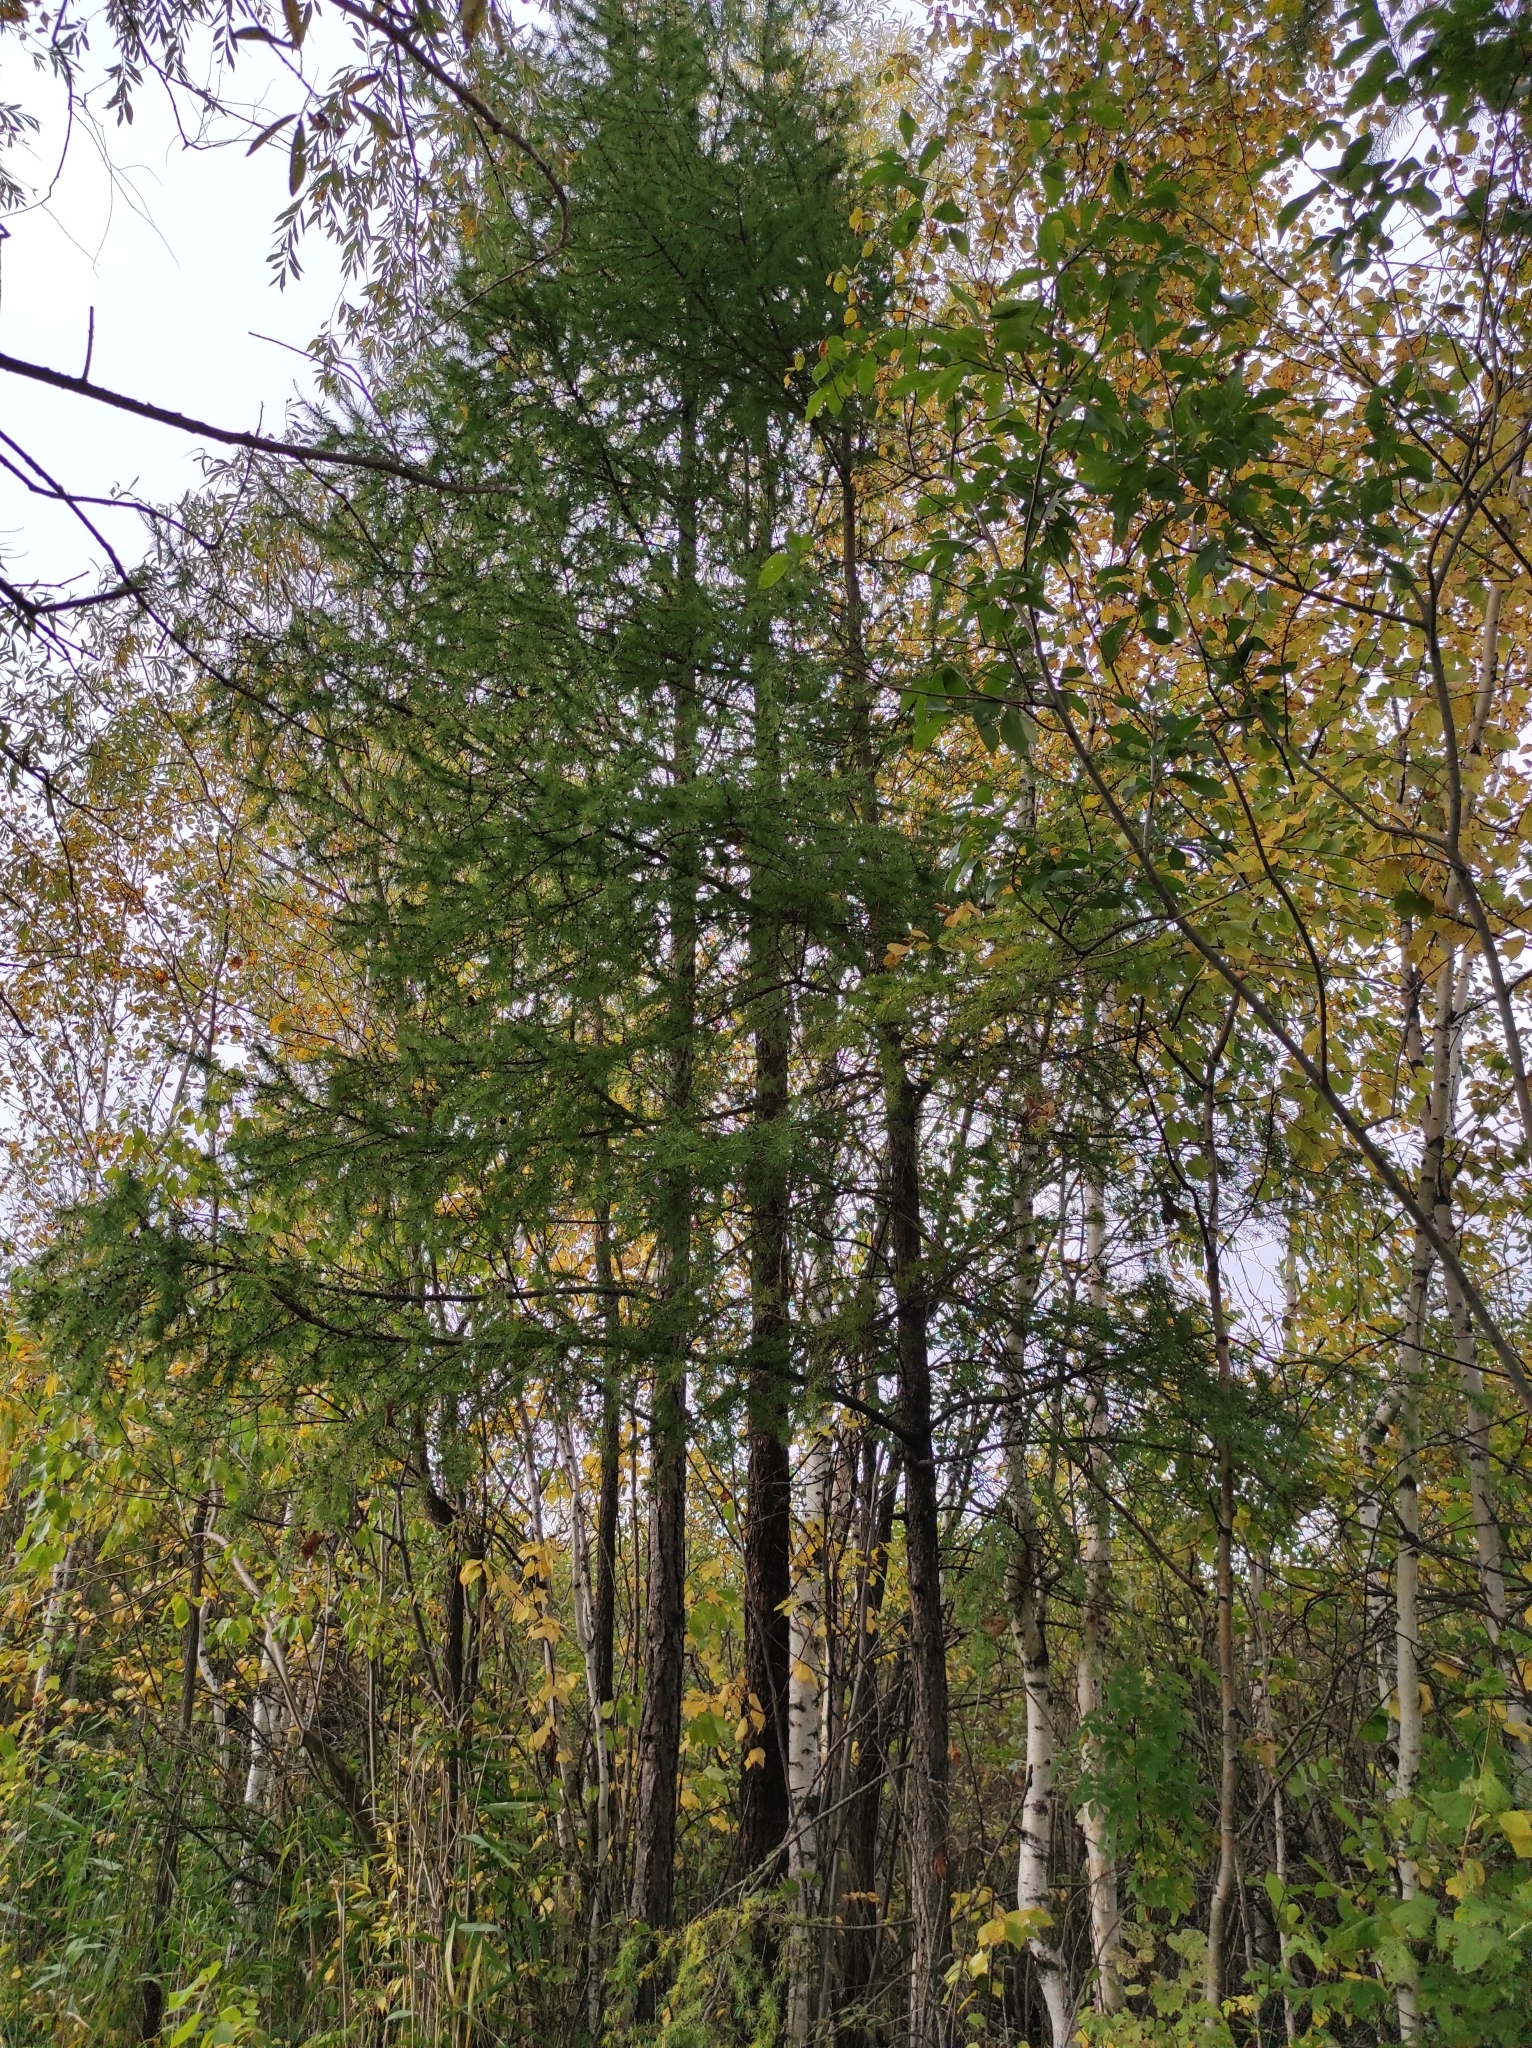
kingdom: Plantae
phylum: Tracheophyta
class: Pinopsida
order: Pinales
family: Pinaceae
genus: Larix
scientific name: Larix sibirica
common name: Siberian larch
